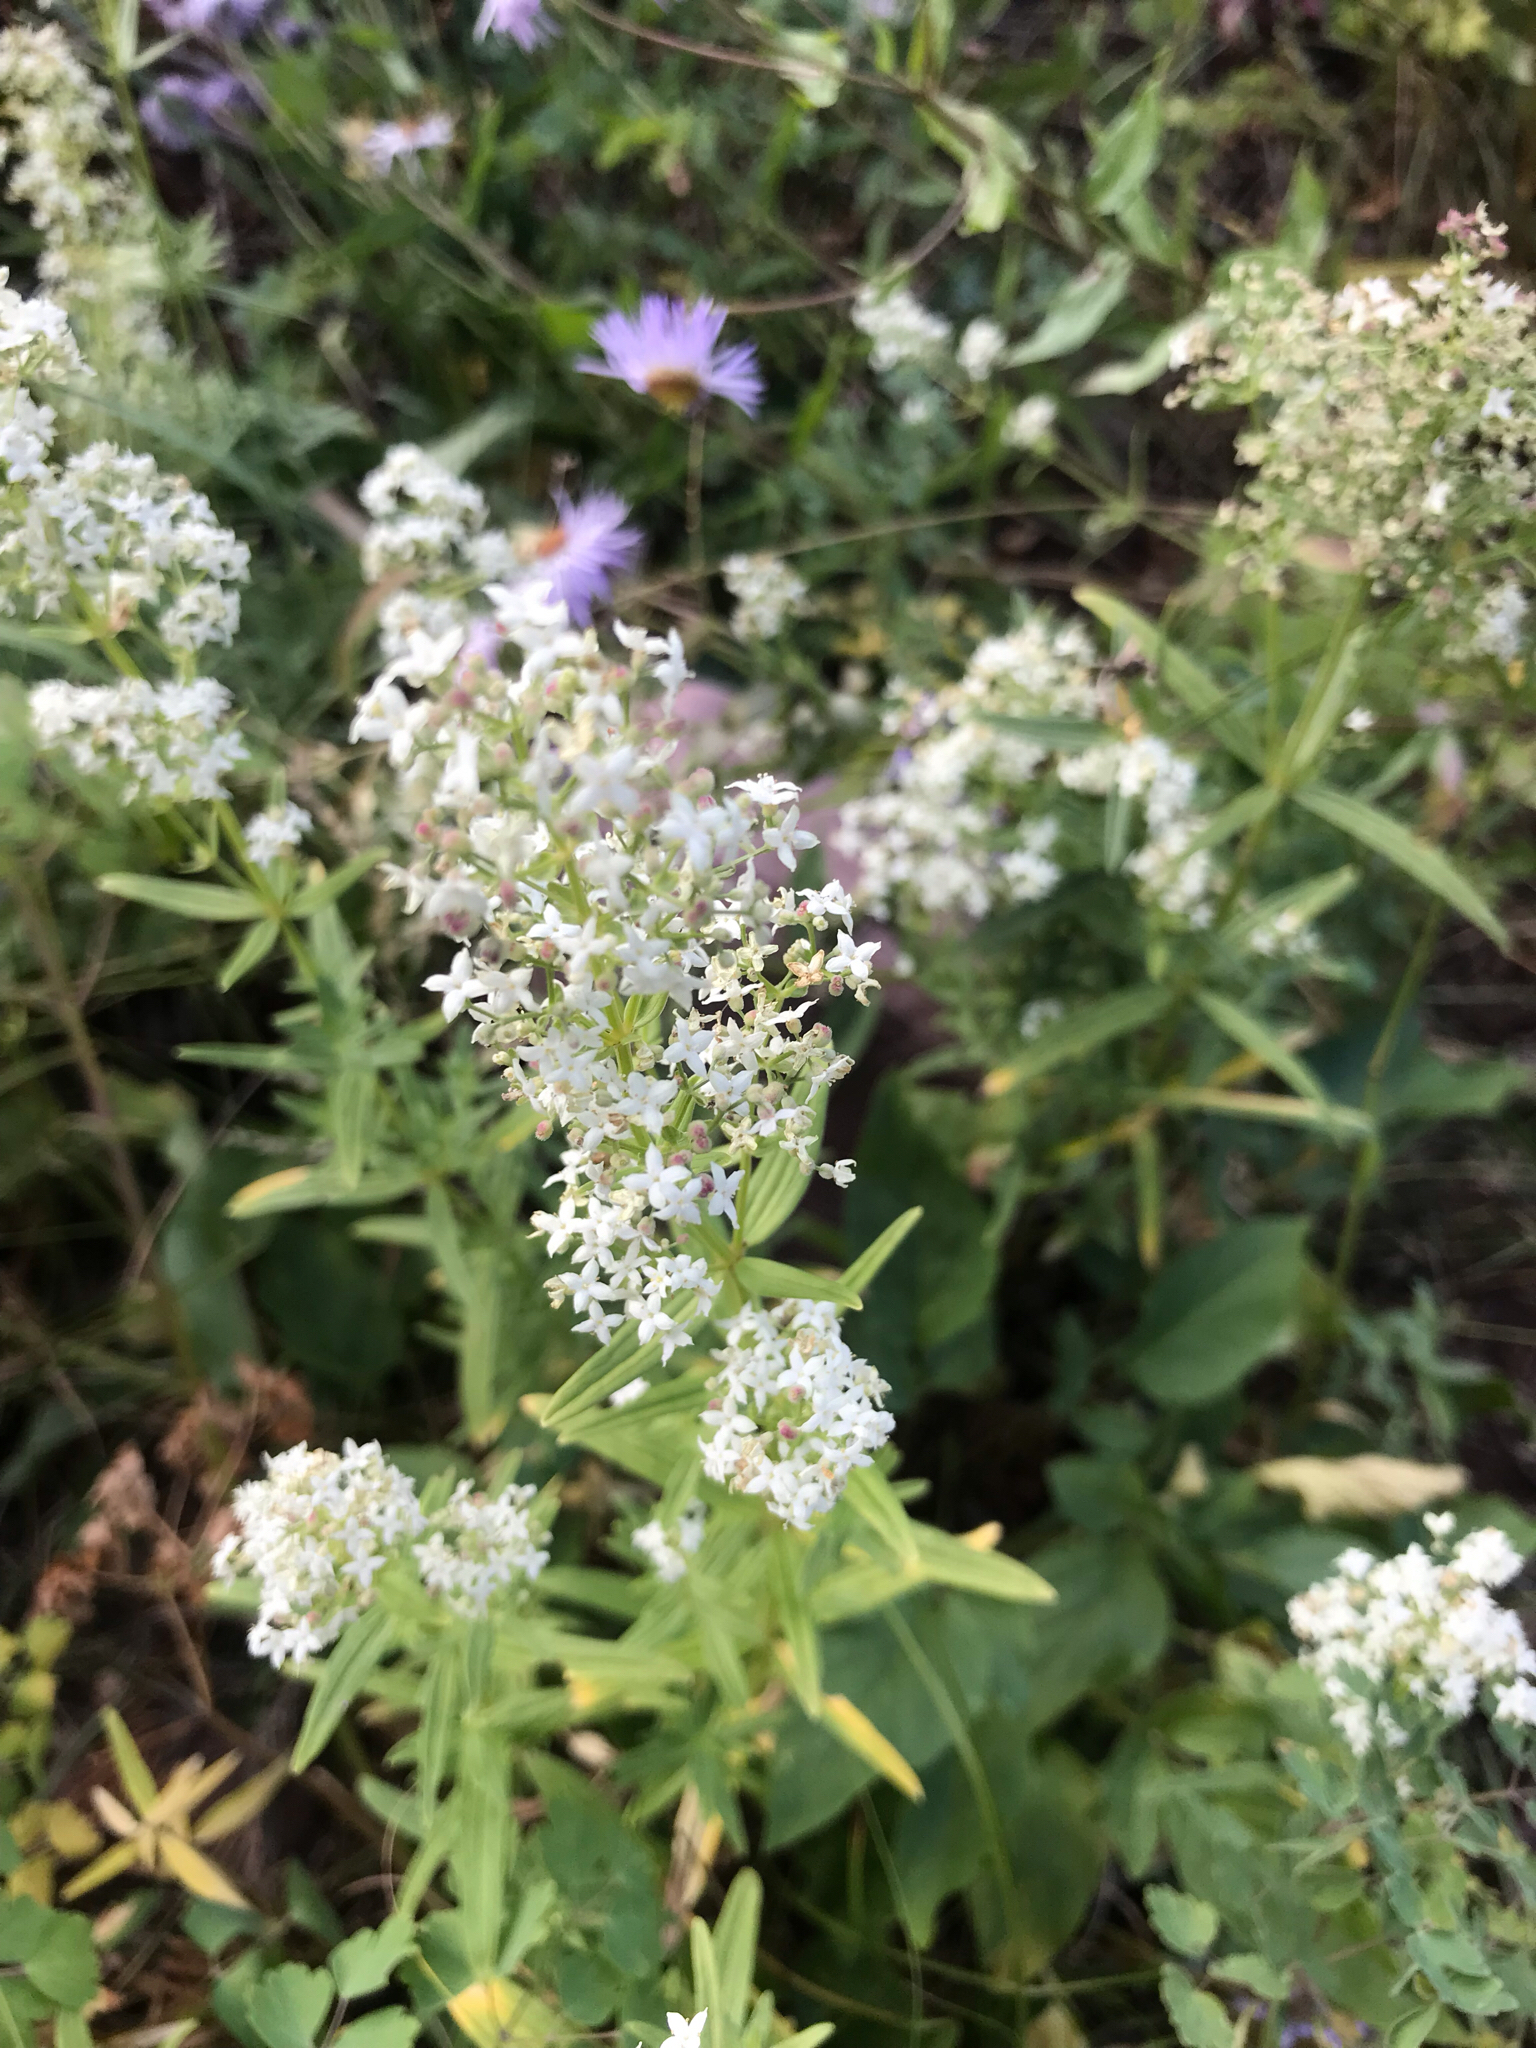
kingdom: Plantae
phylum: Tracheophyta
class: Magnoliopsida
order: Gentianales
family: Rubiaceae
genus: Galium
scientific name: Galium boreale
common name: Northern bedstraw
